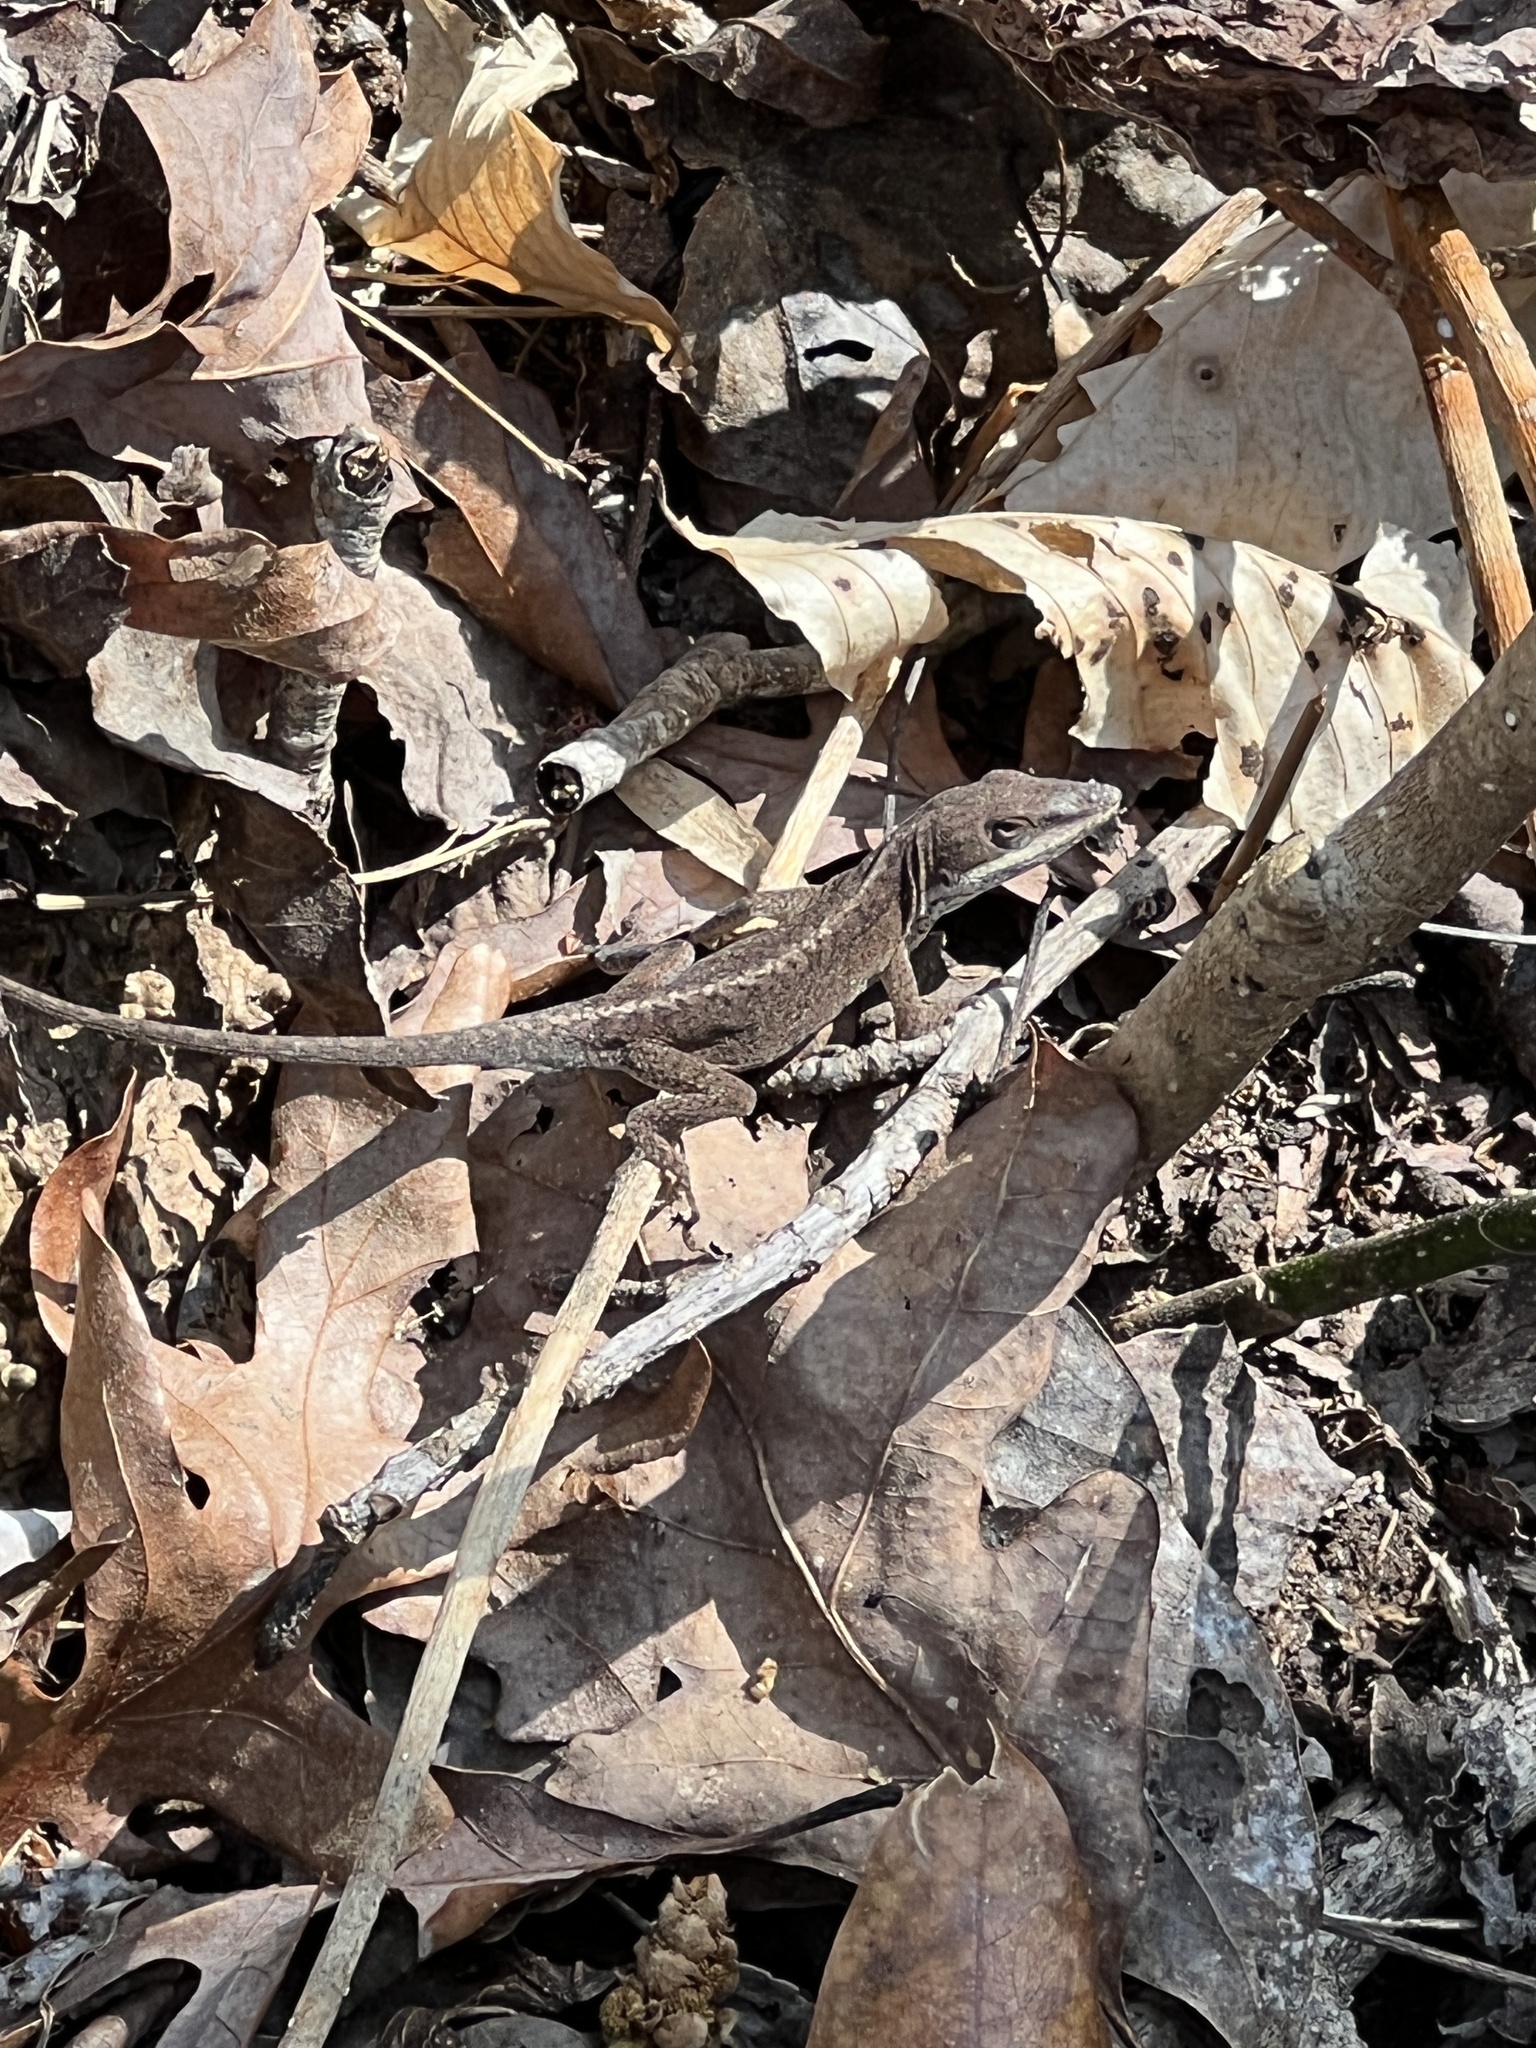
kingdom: Animalia
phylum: Chordata
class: Squamata
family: Dactyloidae
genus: Anolis
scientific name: Anolis carolinensis
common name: Green anole
